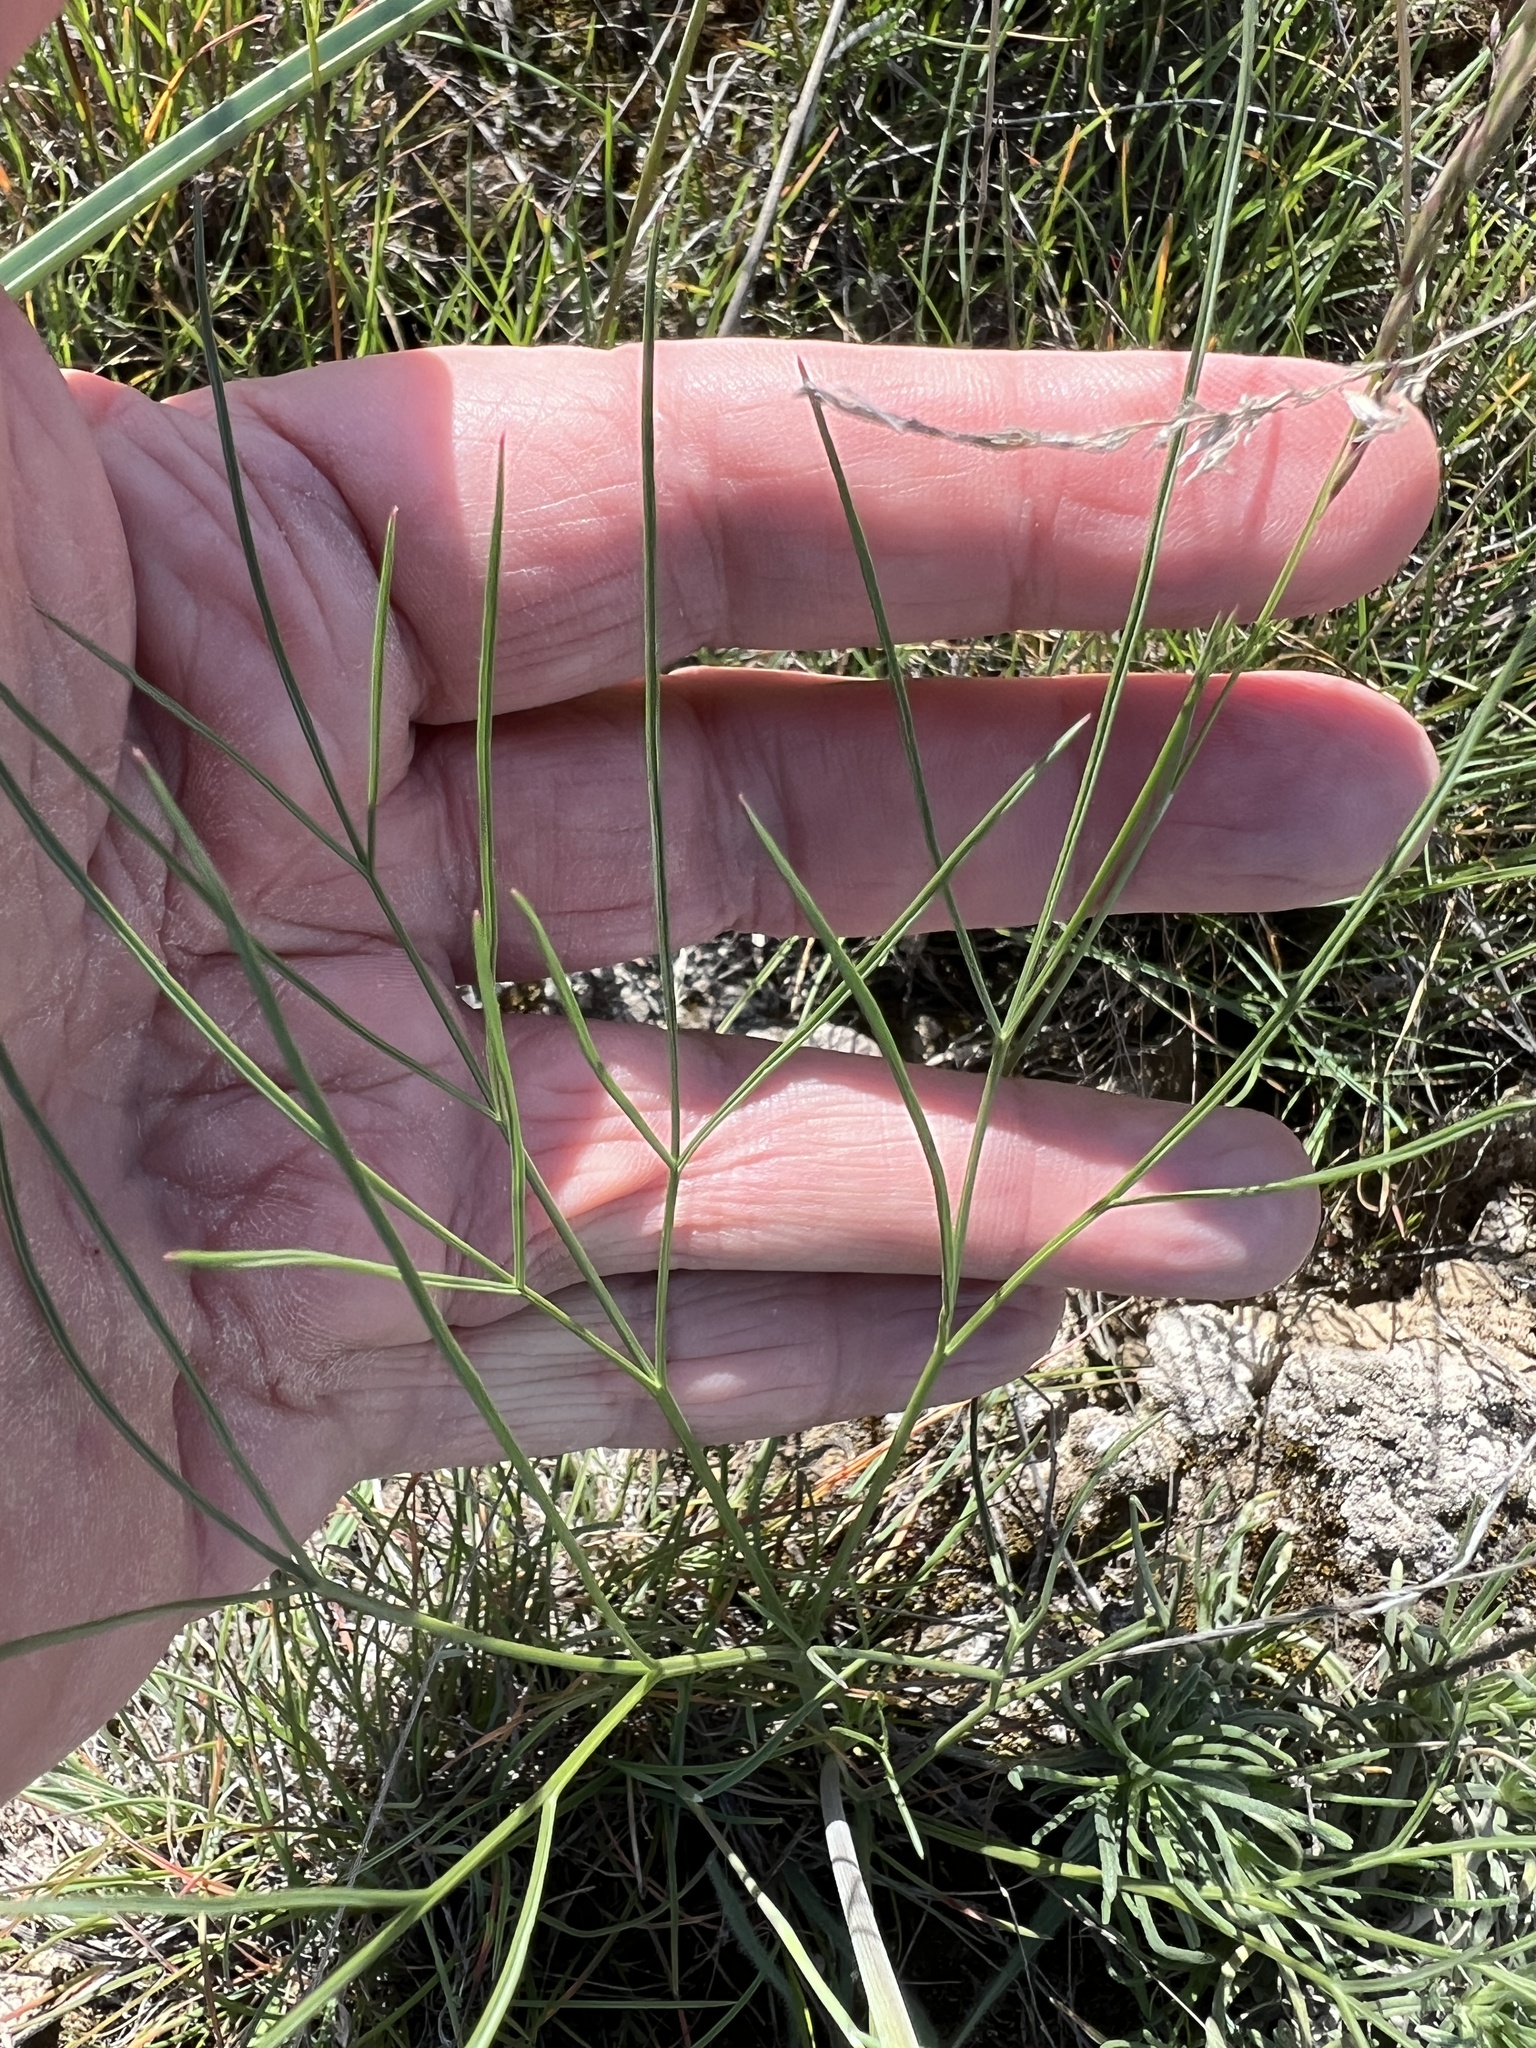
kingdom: Plantae
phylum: Tracheophyta
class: Magnoliopsida
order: Apiales
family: Apiaceae
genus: Lomatium
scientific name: Lomatium simplex
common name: Great basin biscuitroot
